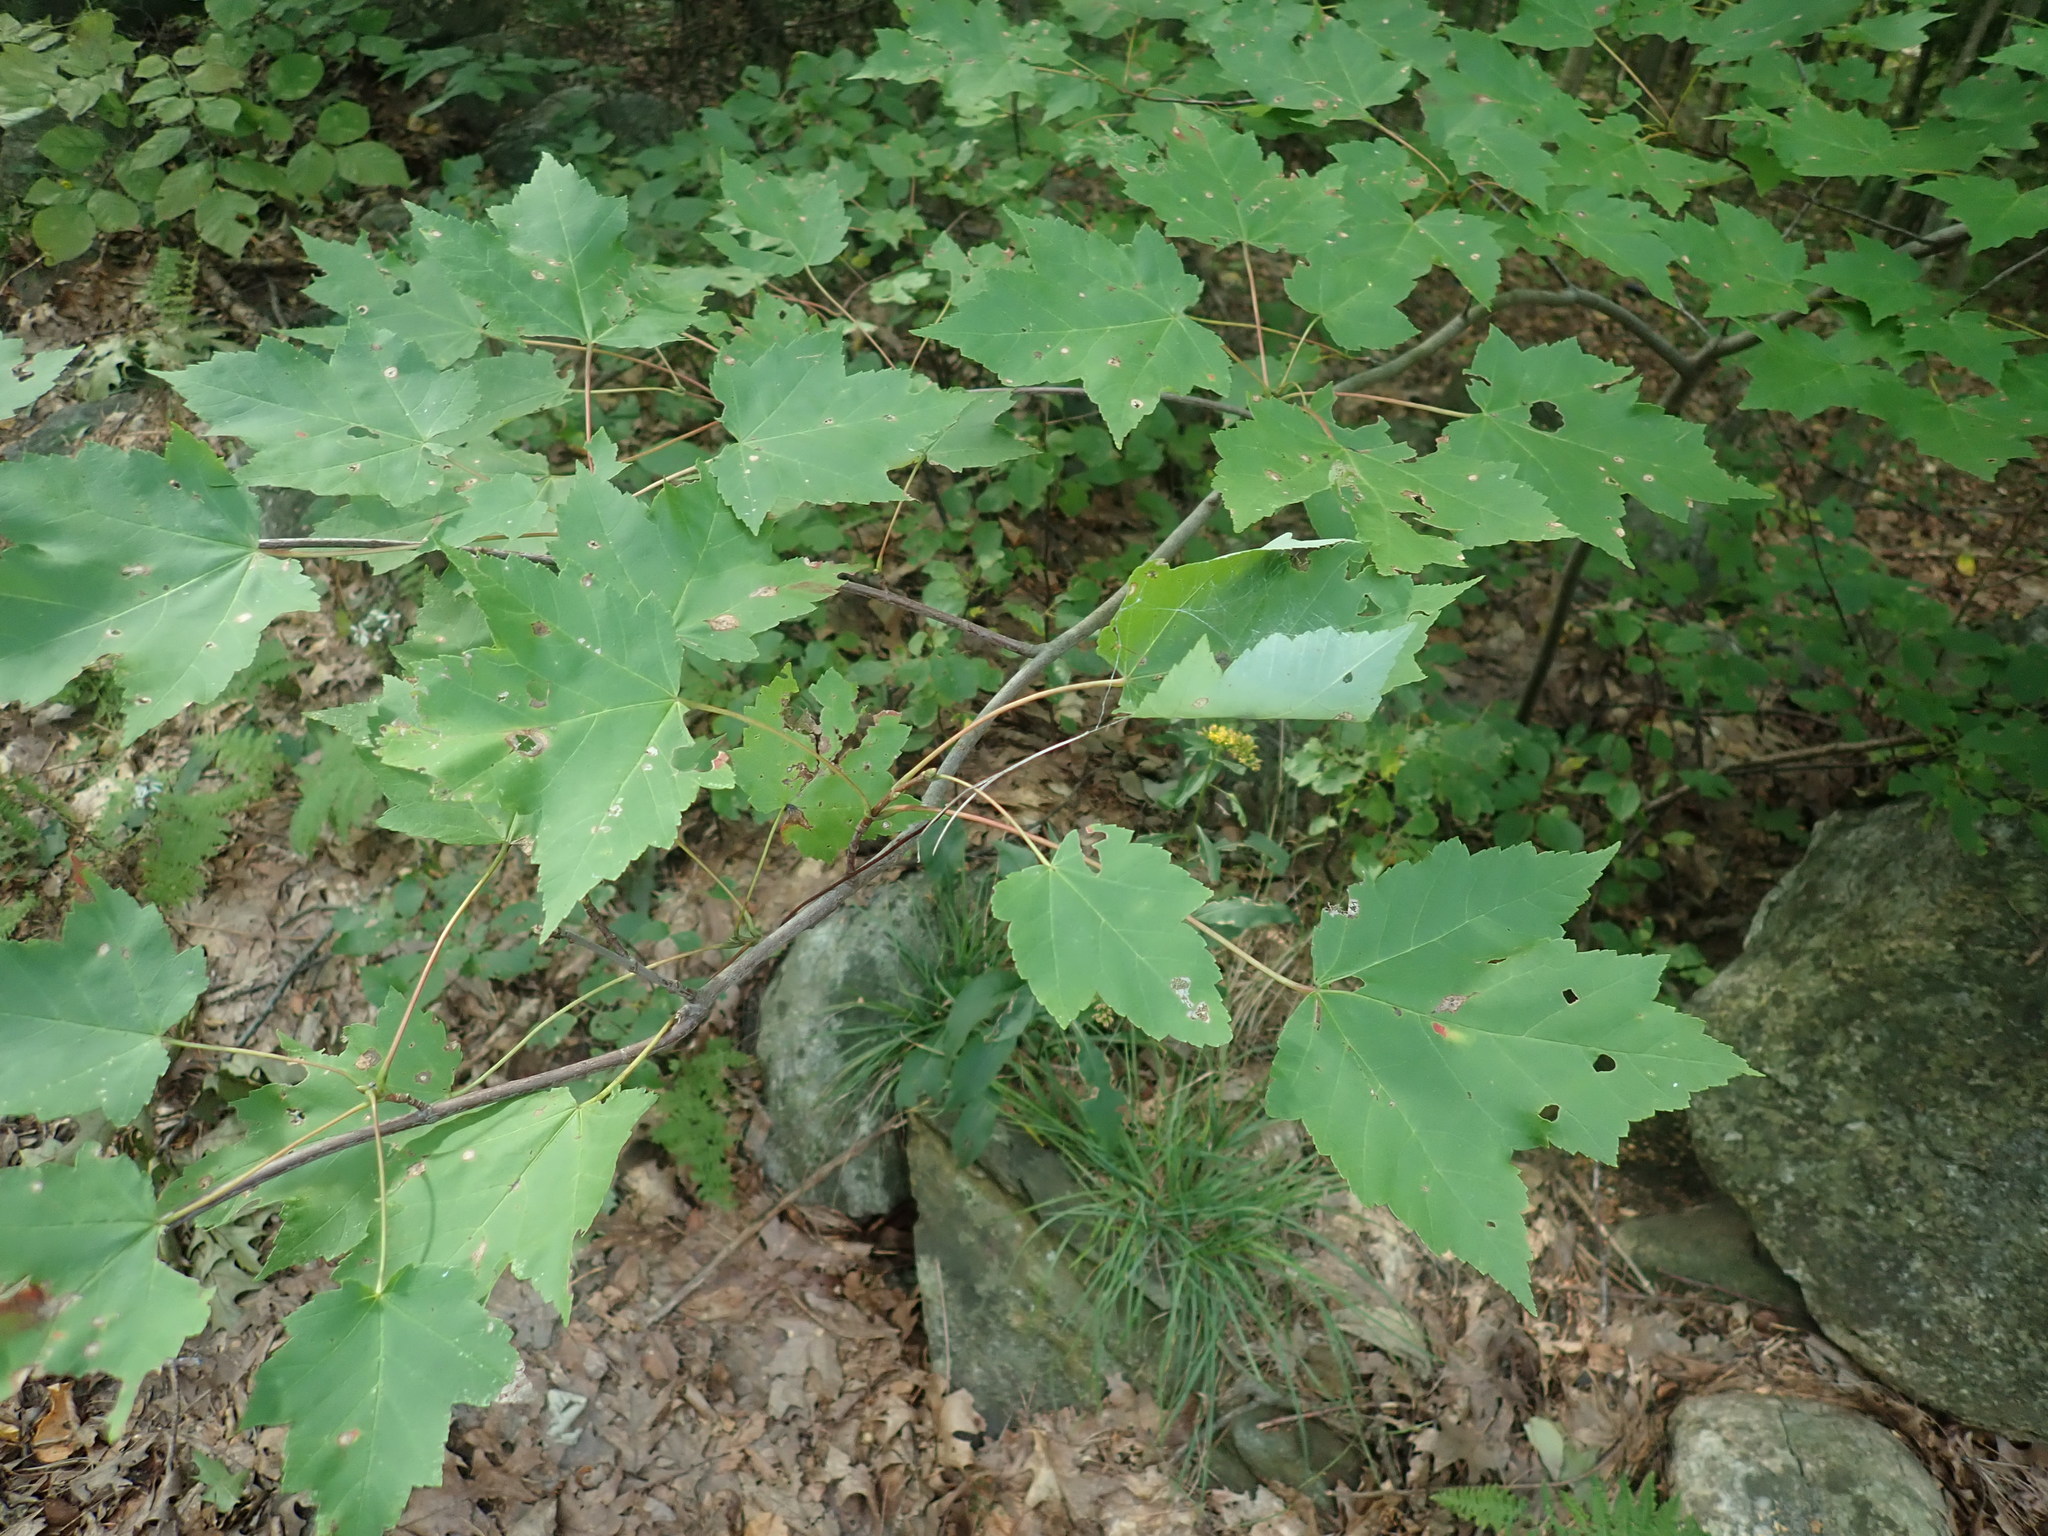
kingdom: Plantae
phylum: Tracheophyta
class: Magnoliopsida
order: Sapindales
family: Sapindaceae
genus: Acer
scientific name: Acer rubrum
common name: Red maple
